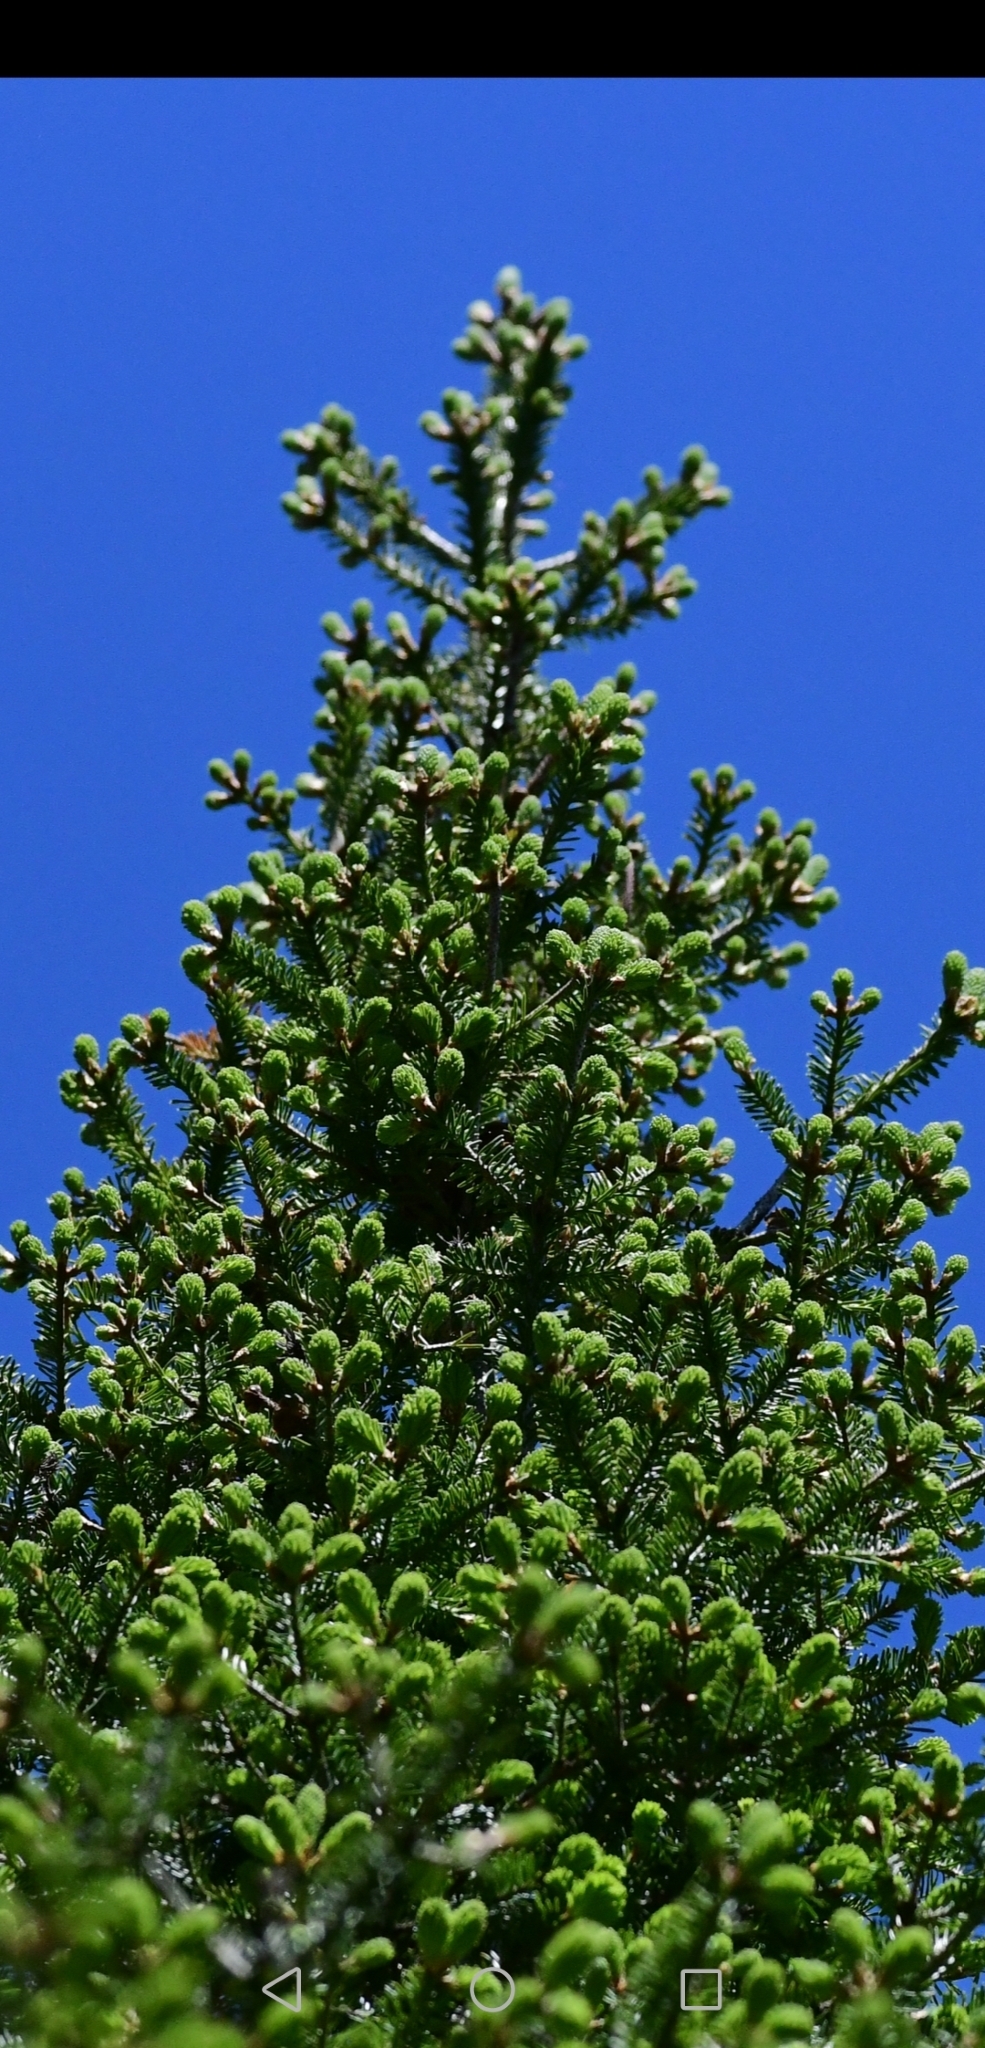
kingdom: Plantae
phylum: Tracheophyta
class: Pinopsida
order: Pinales
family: Pinaceae
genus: Abies
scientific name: Abies balsamea
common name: Balsam fir
